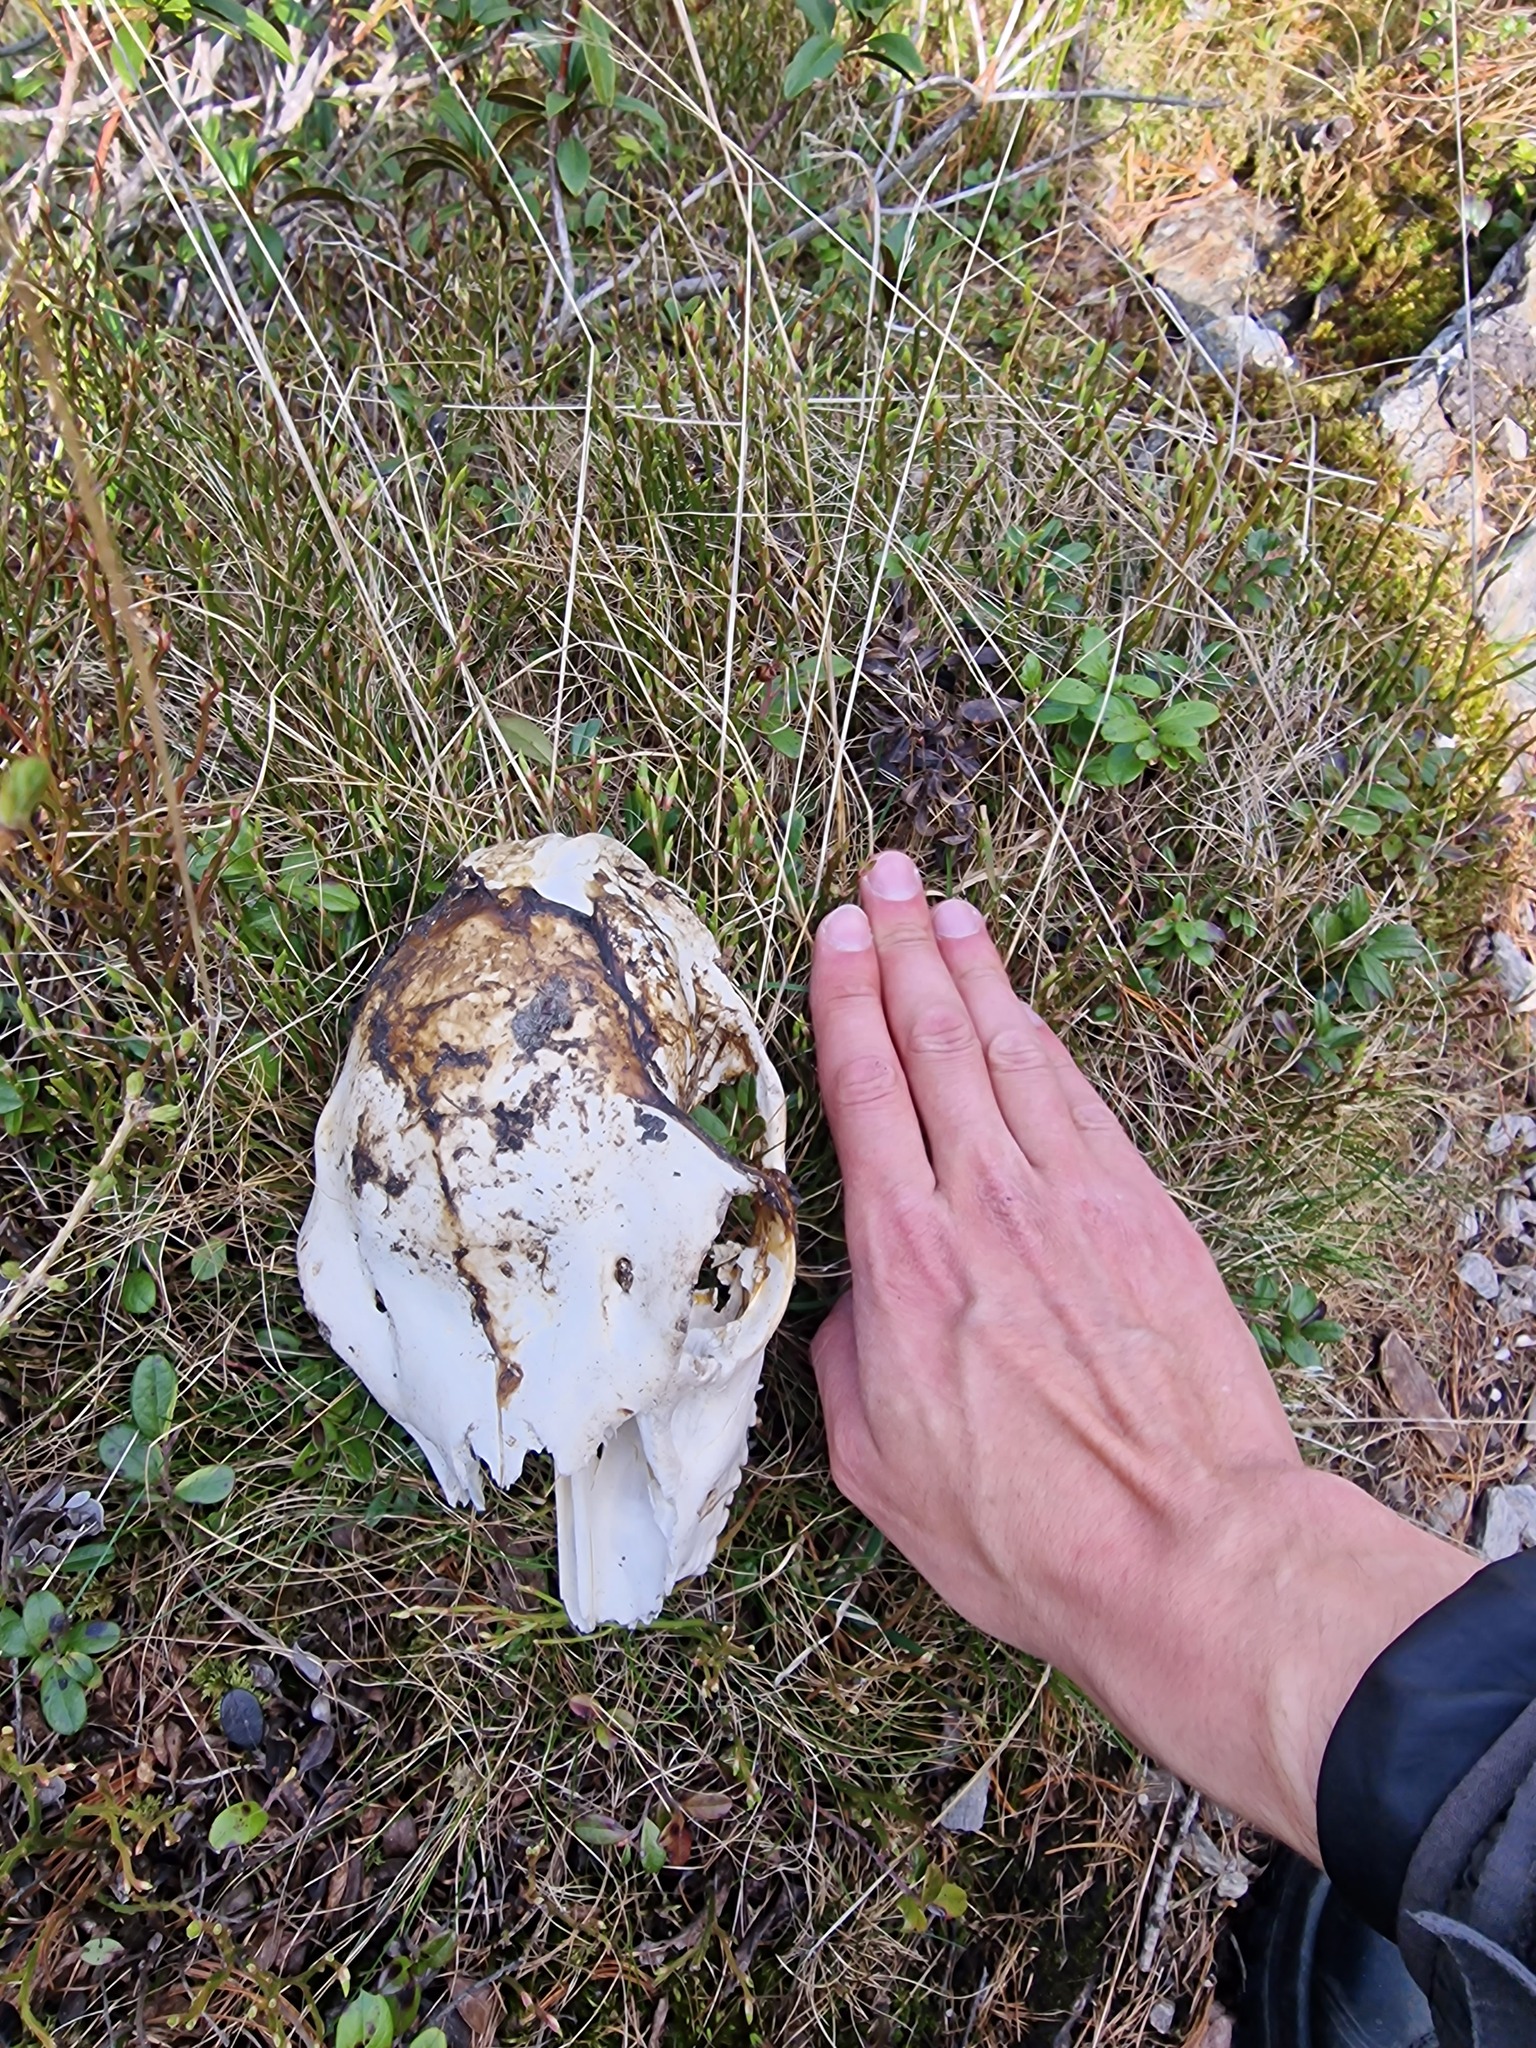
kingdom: Animalia
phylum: Chordata
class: Mammalia
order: Artiodactyla
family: Cervidae
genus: Cervus
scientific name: Cervus elaphus
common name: Red deer
